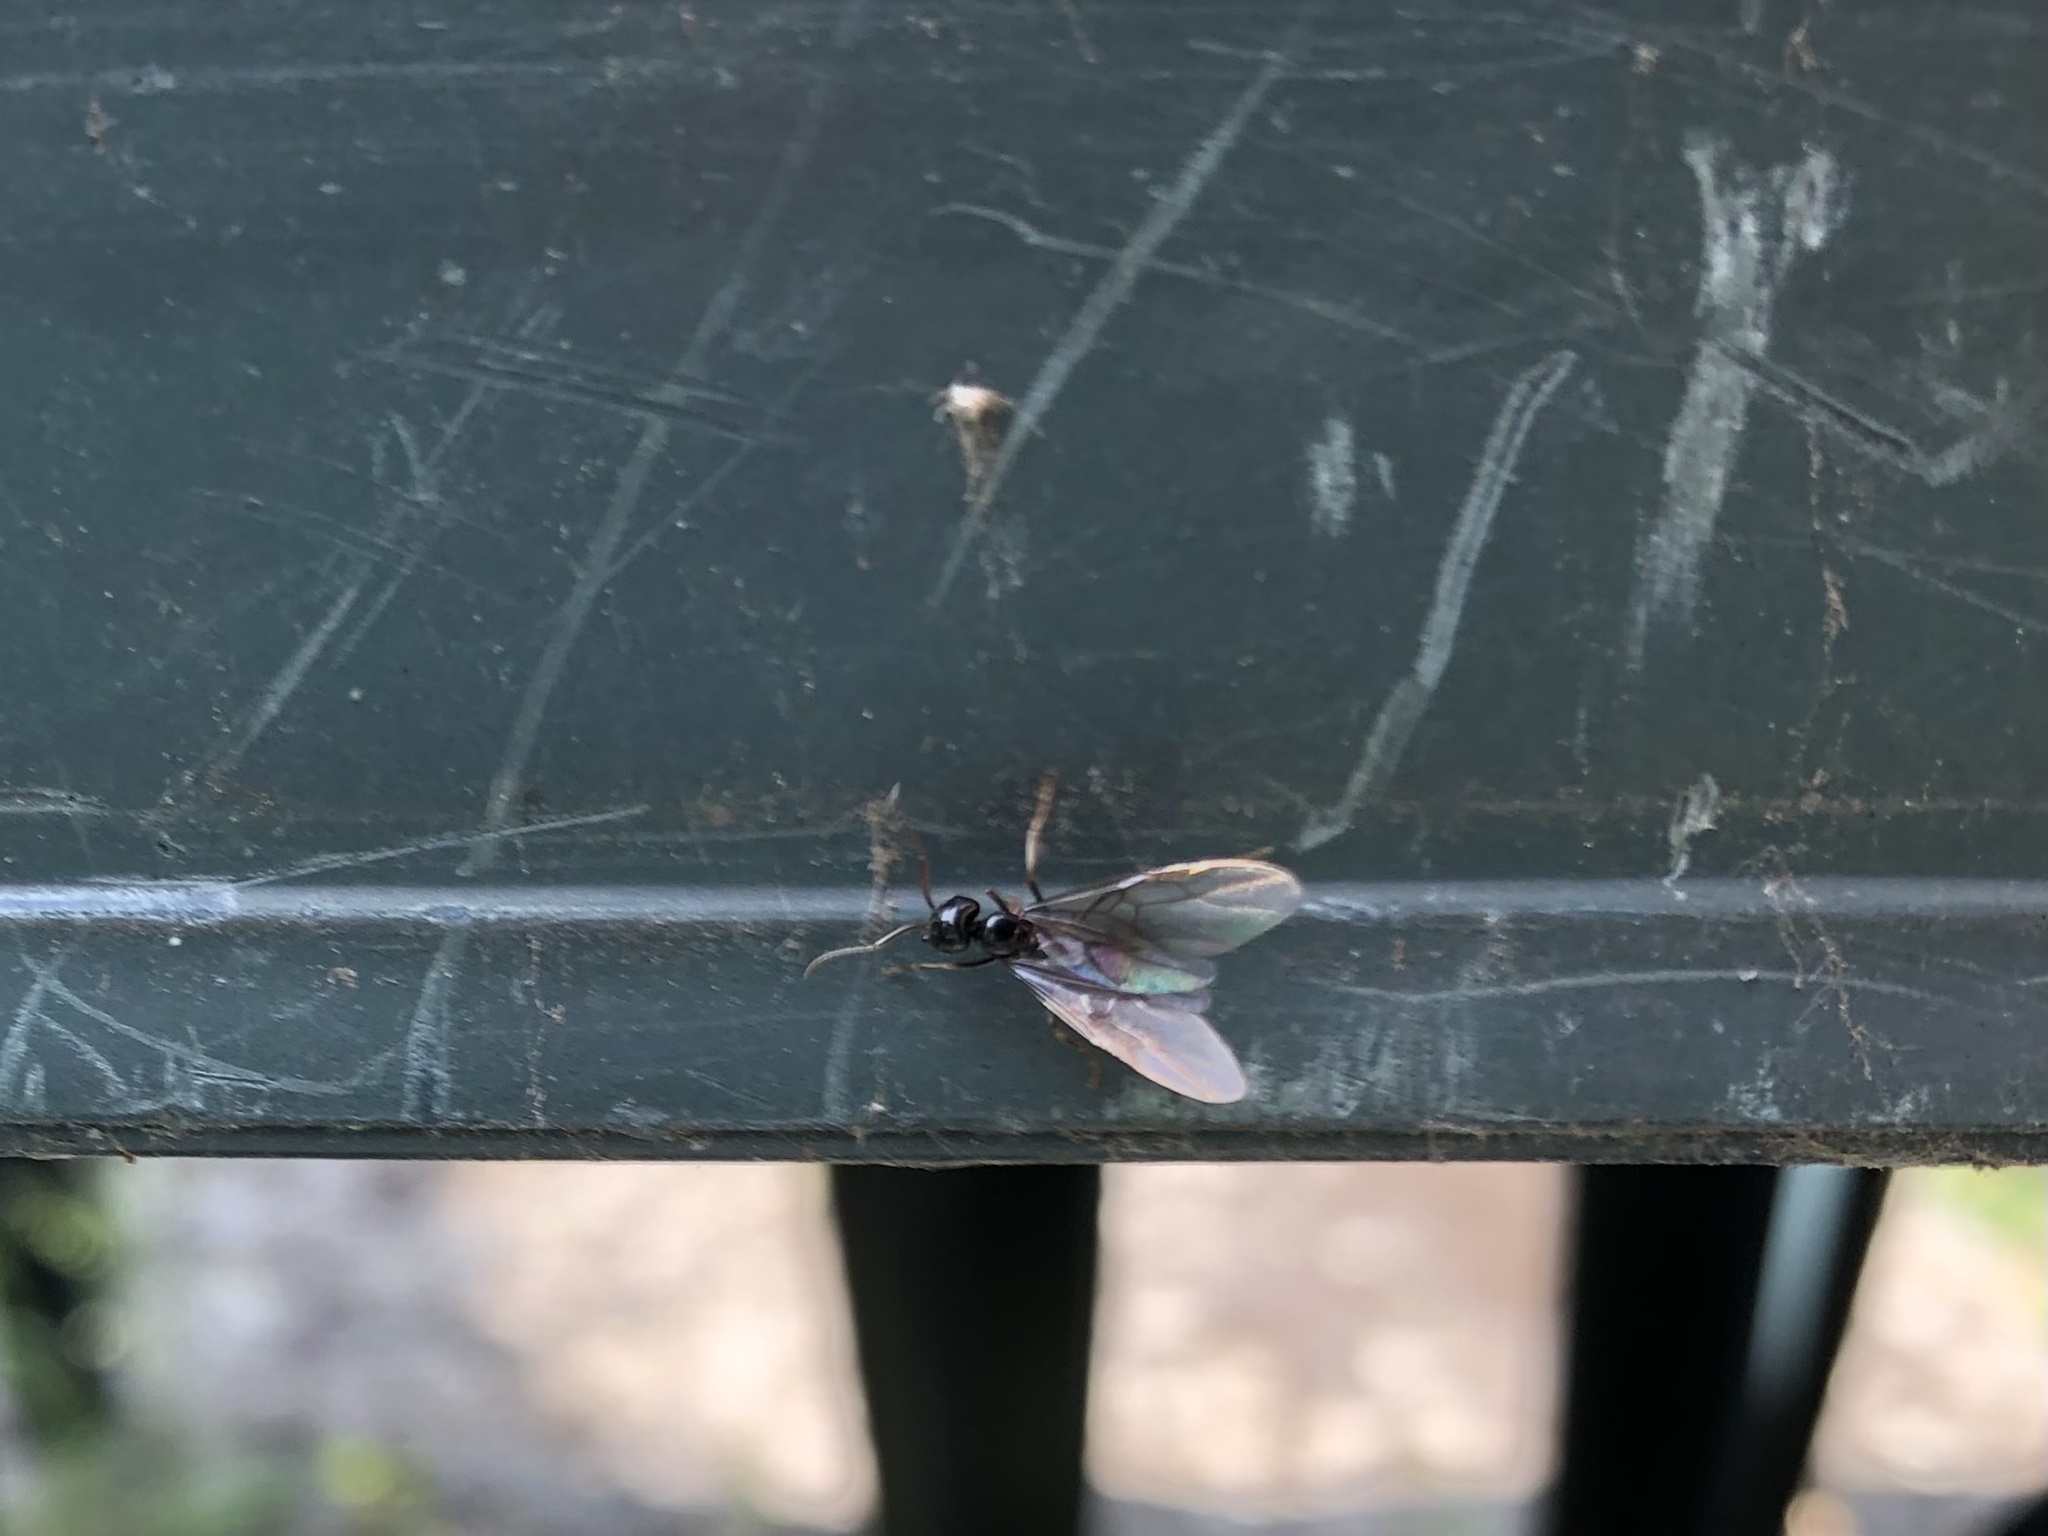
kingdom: Animalia
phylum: Arthropoda
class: Insecta
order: Hymenoptera
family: Formicidae
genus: Lasius
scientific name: Lasius fuliginosus
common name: Jet ant
